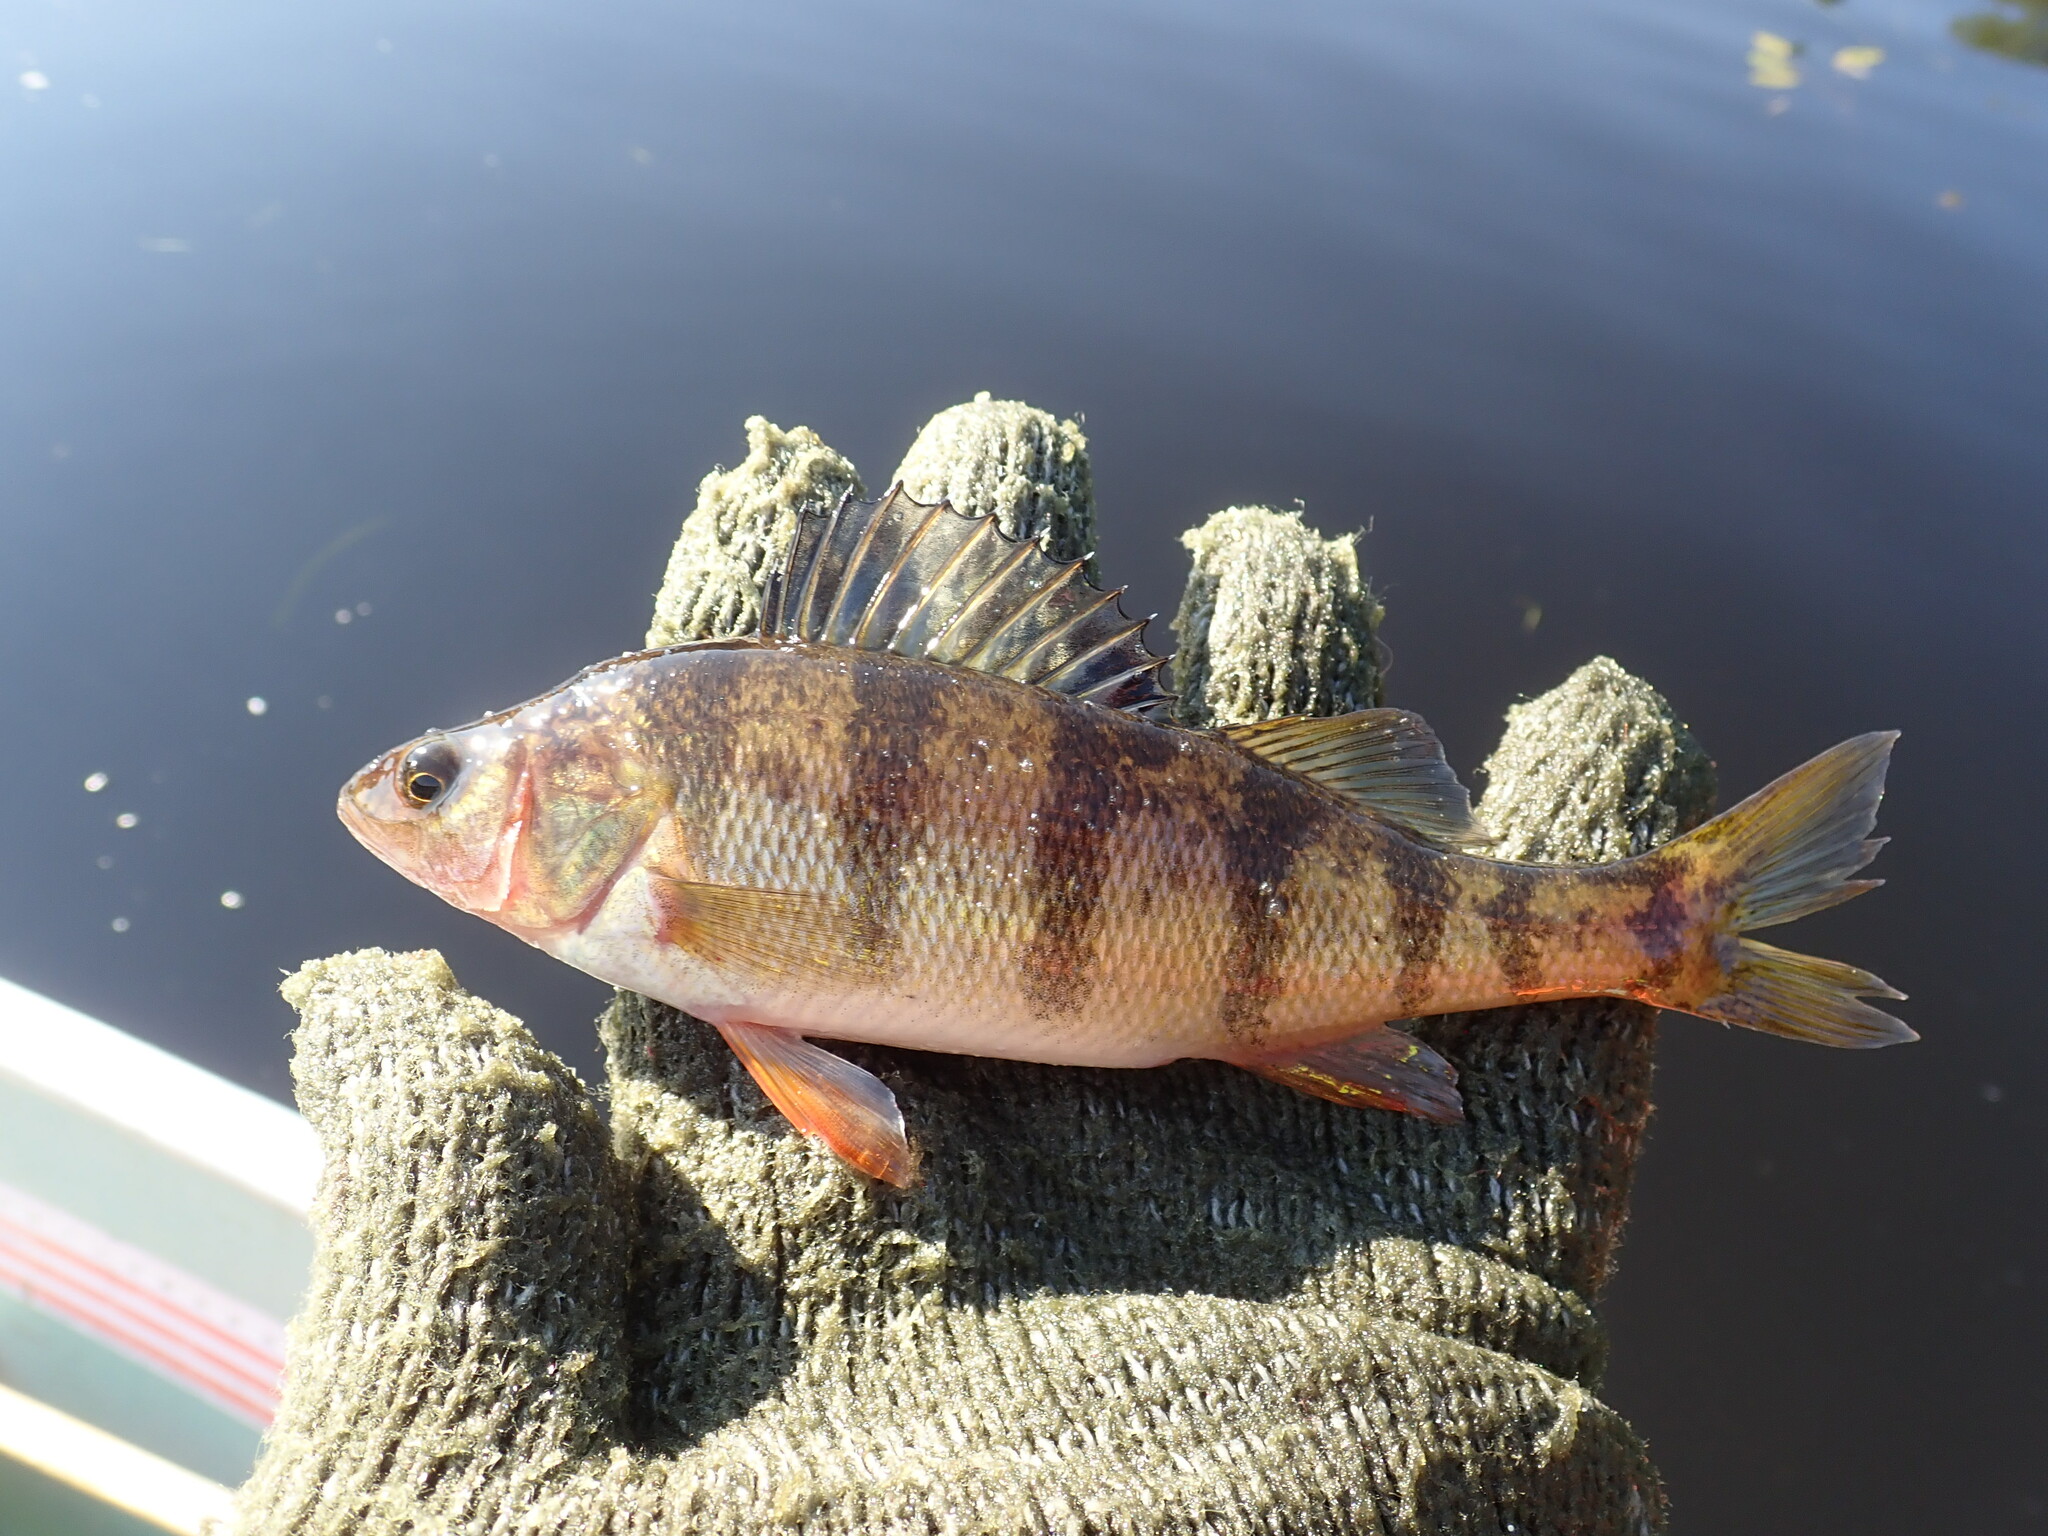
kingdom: Animalia
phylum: Chordata
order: Perciformes
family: Percidae
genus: Perca
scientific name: Perca flavescens
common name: Yellow perch
